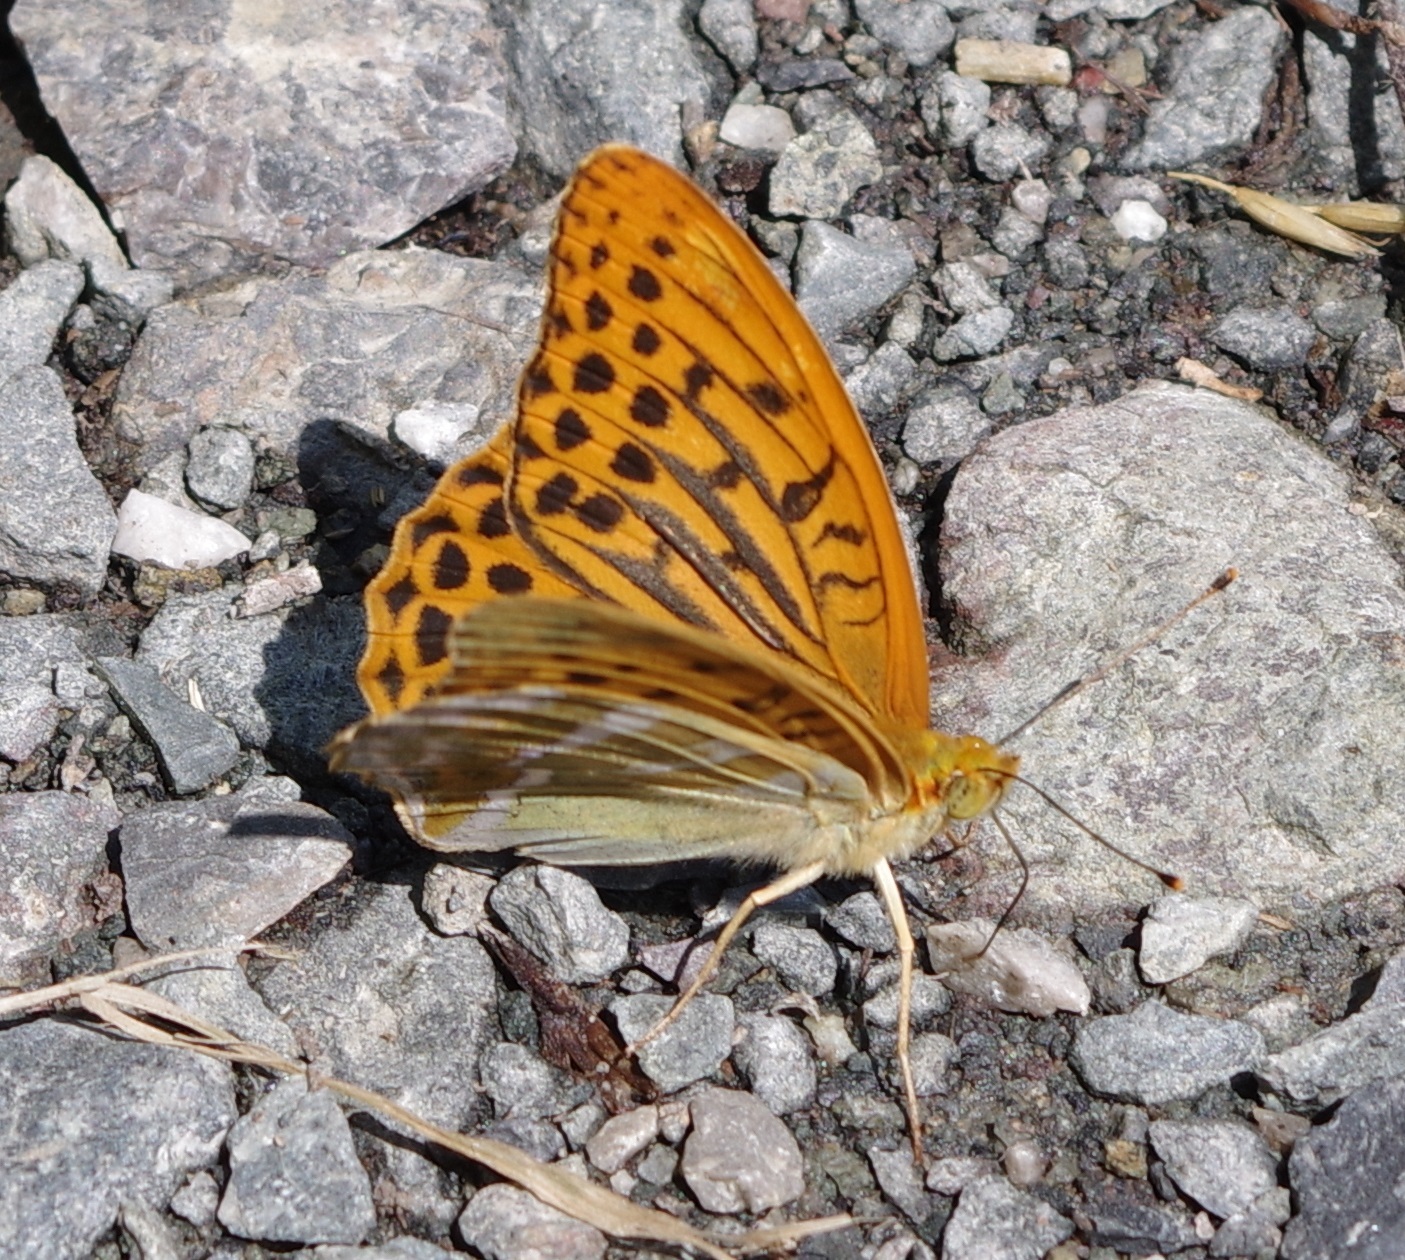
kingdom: Animalia
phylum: Arthropoda
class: Insecta
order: Lepidoptera
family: Nymphalidae
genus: Argynnis
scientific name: Argynnis paphia
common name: Silver-washed fritillary
